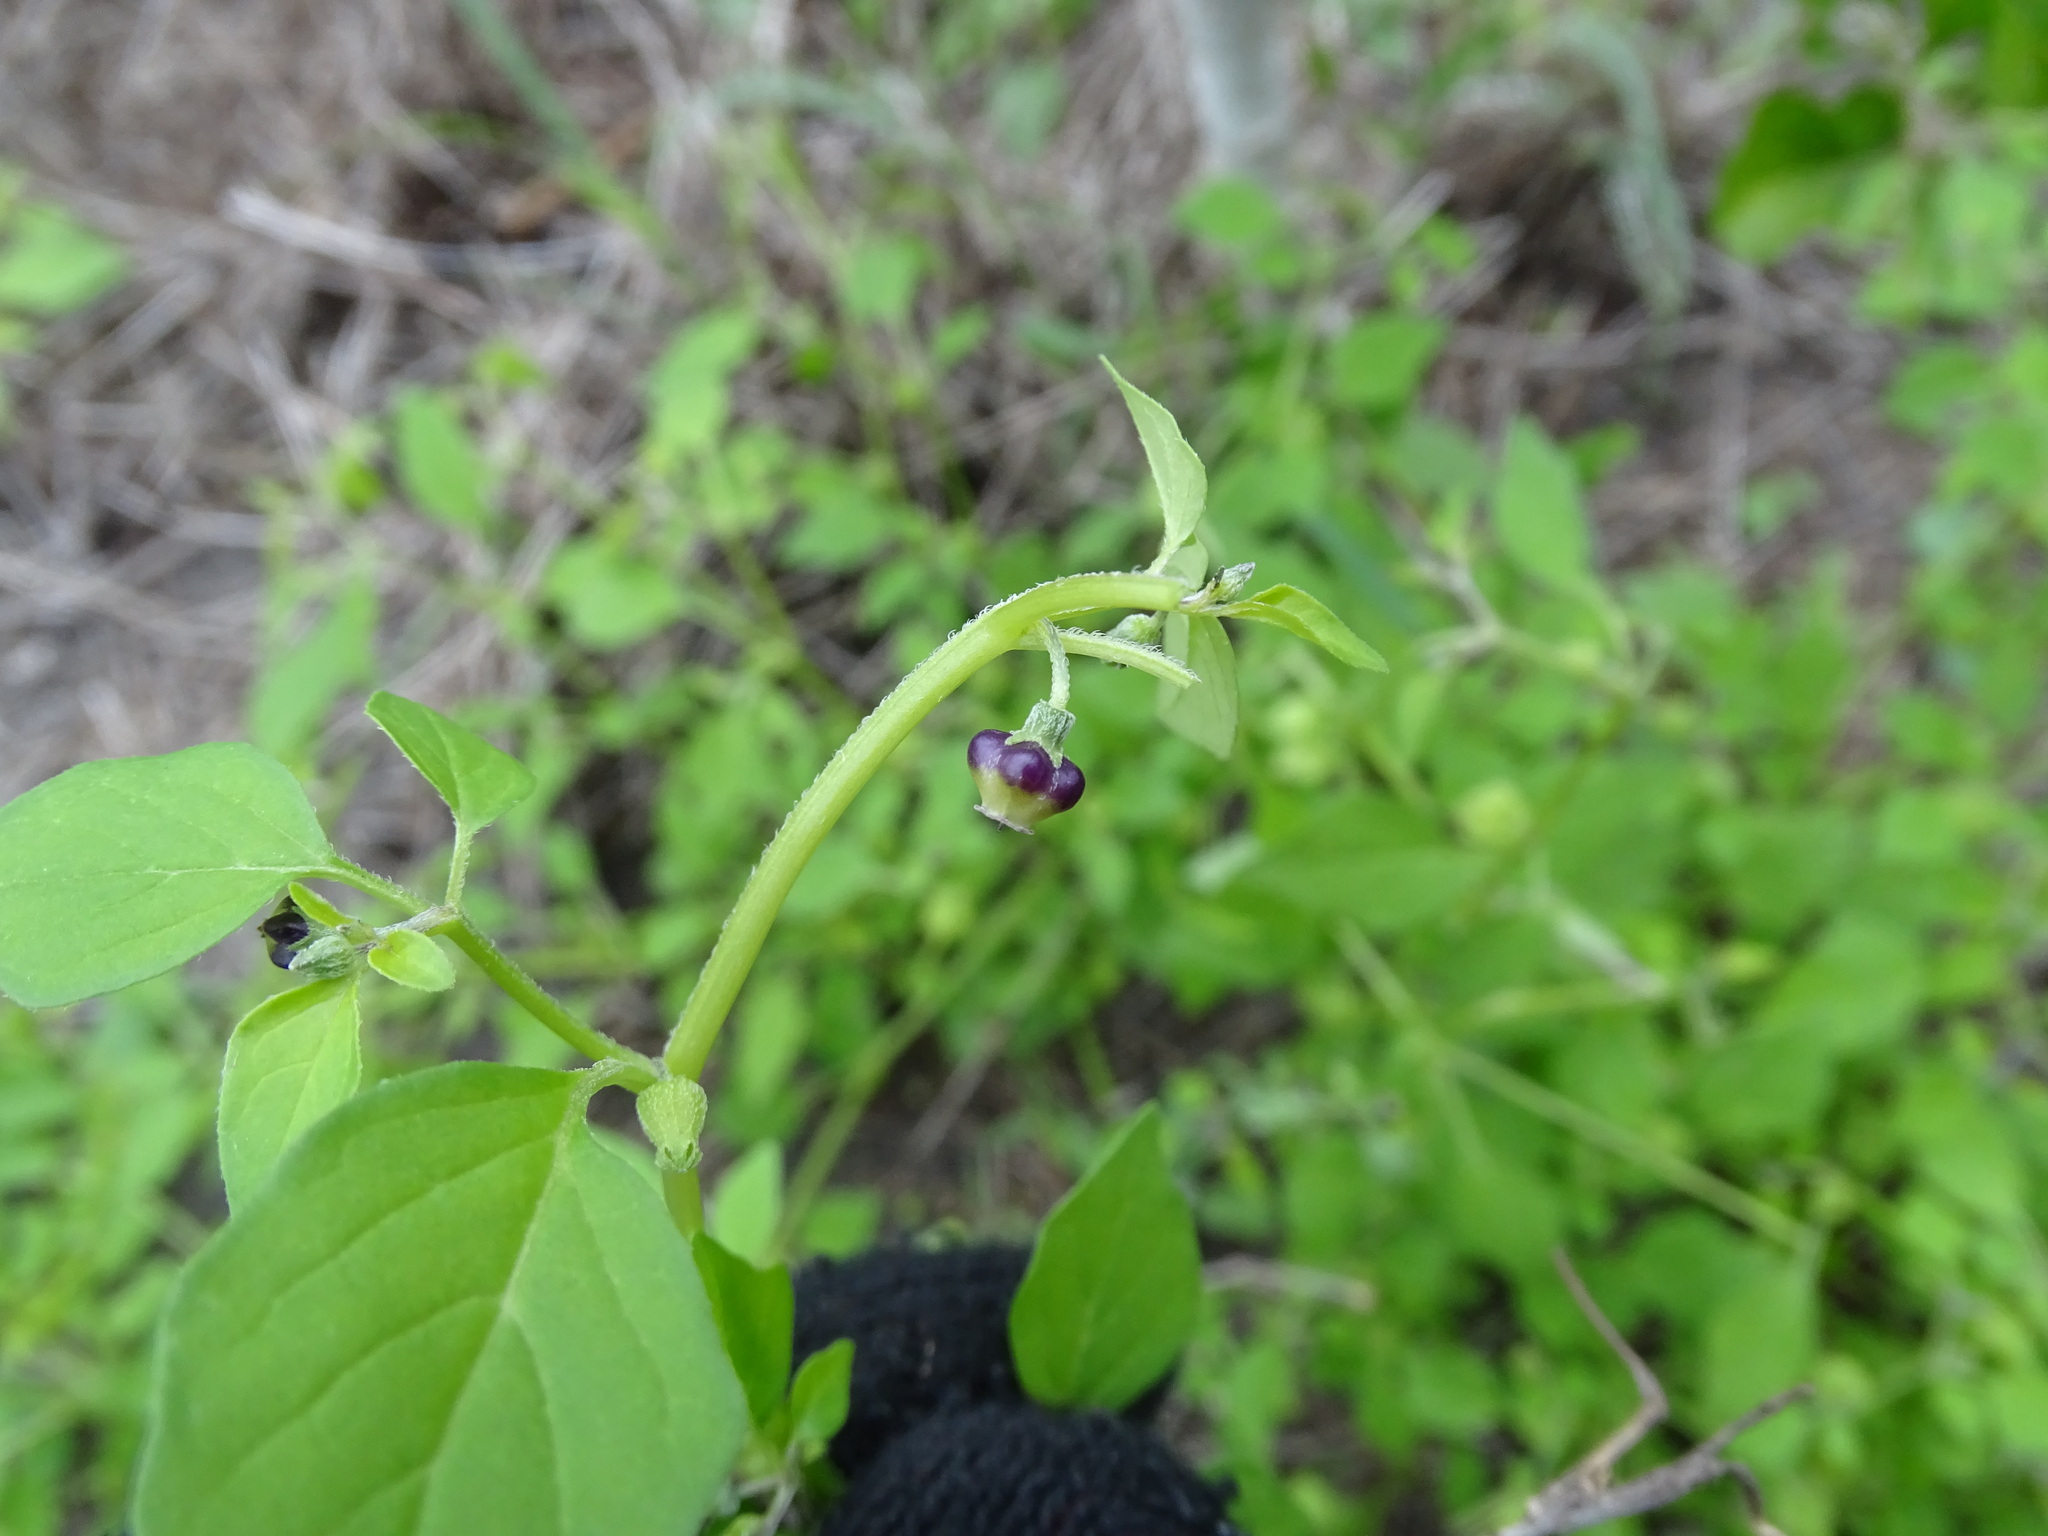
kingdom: Plantae
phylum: Tracheophyta
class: Magnoliopsida
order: Solanales
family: Solanaceae
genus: Physalis
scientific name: Physalis solanacea
